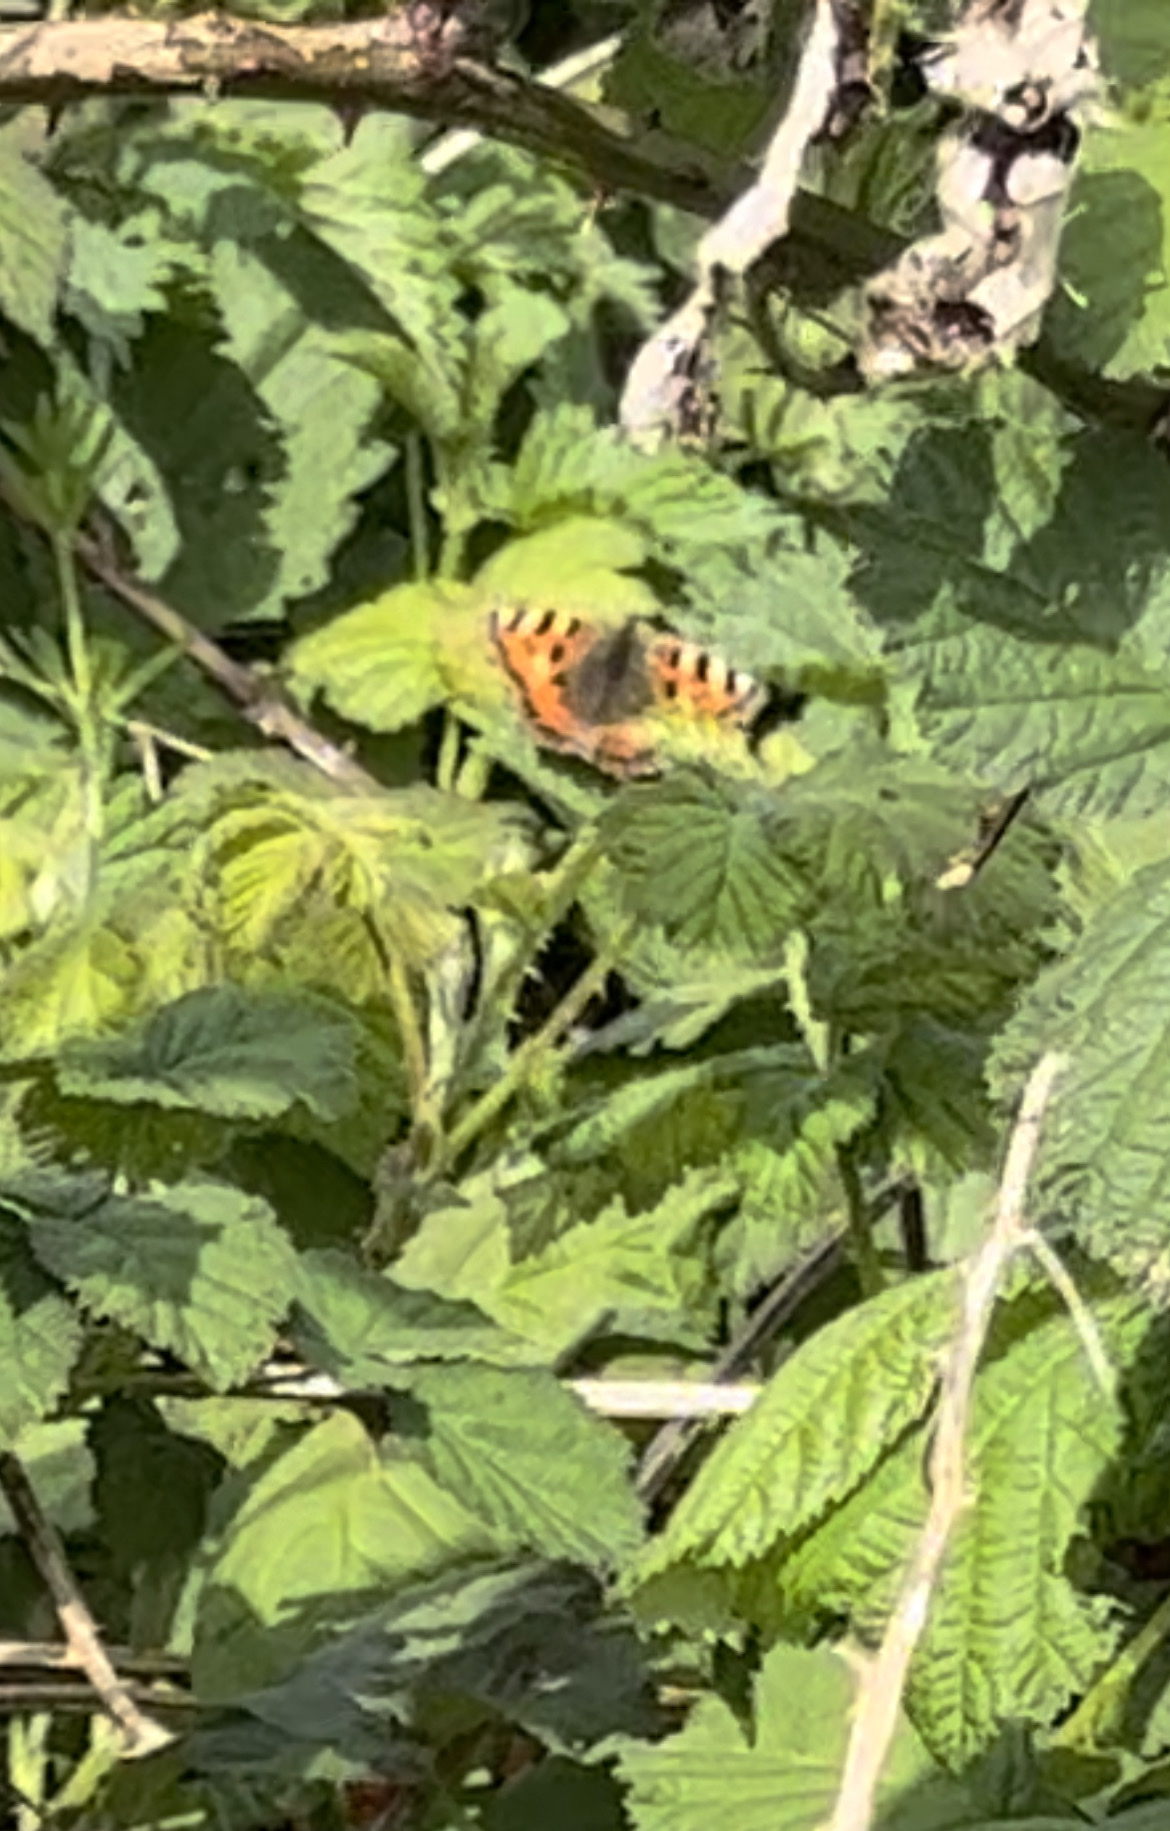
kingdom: Animalia
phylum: Arthropoda
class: Insecta
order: Lepidoptera
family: Nymphalidae
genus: Aglais
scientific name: Aglais urticae
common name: Small tortoiseshell
